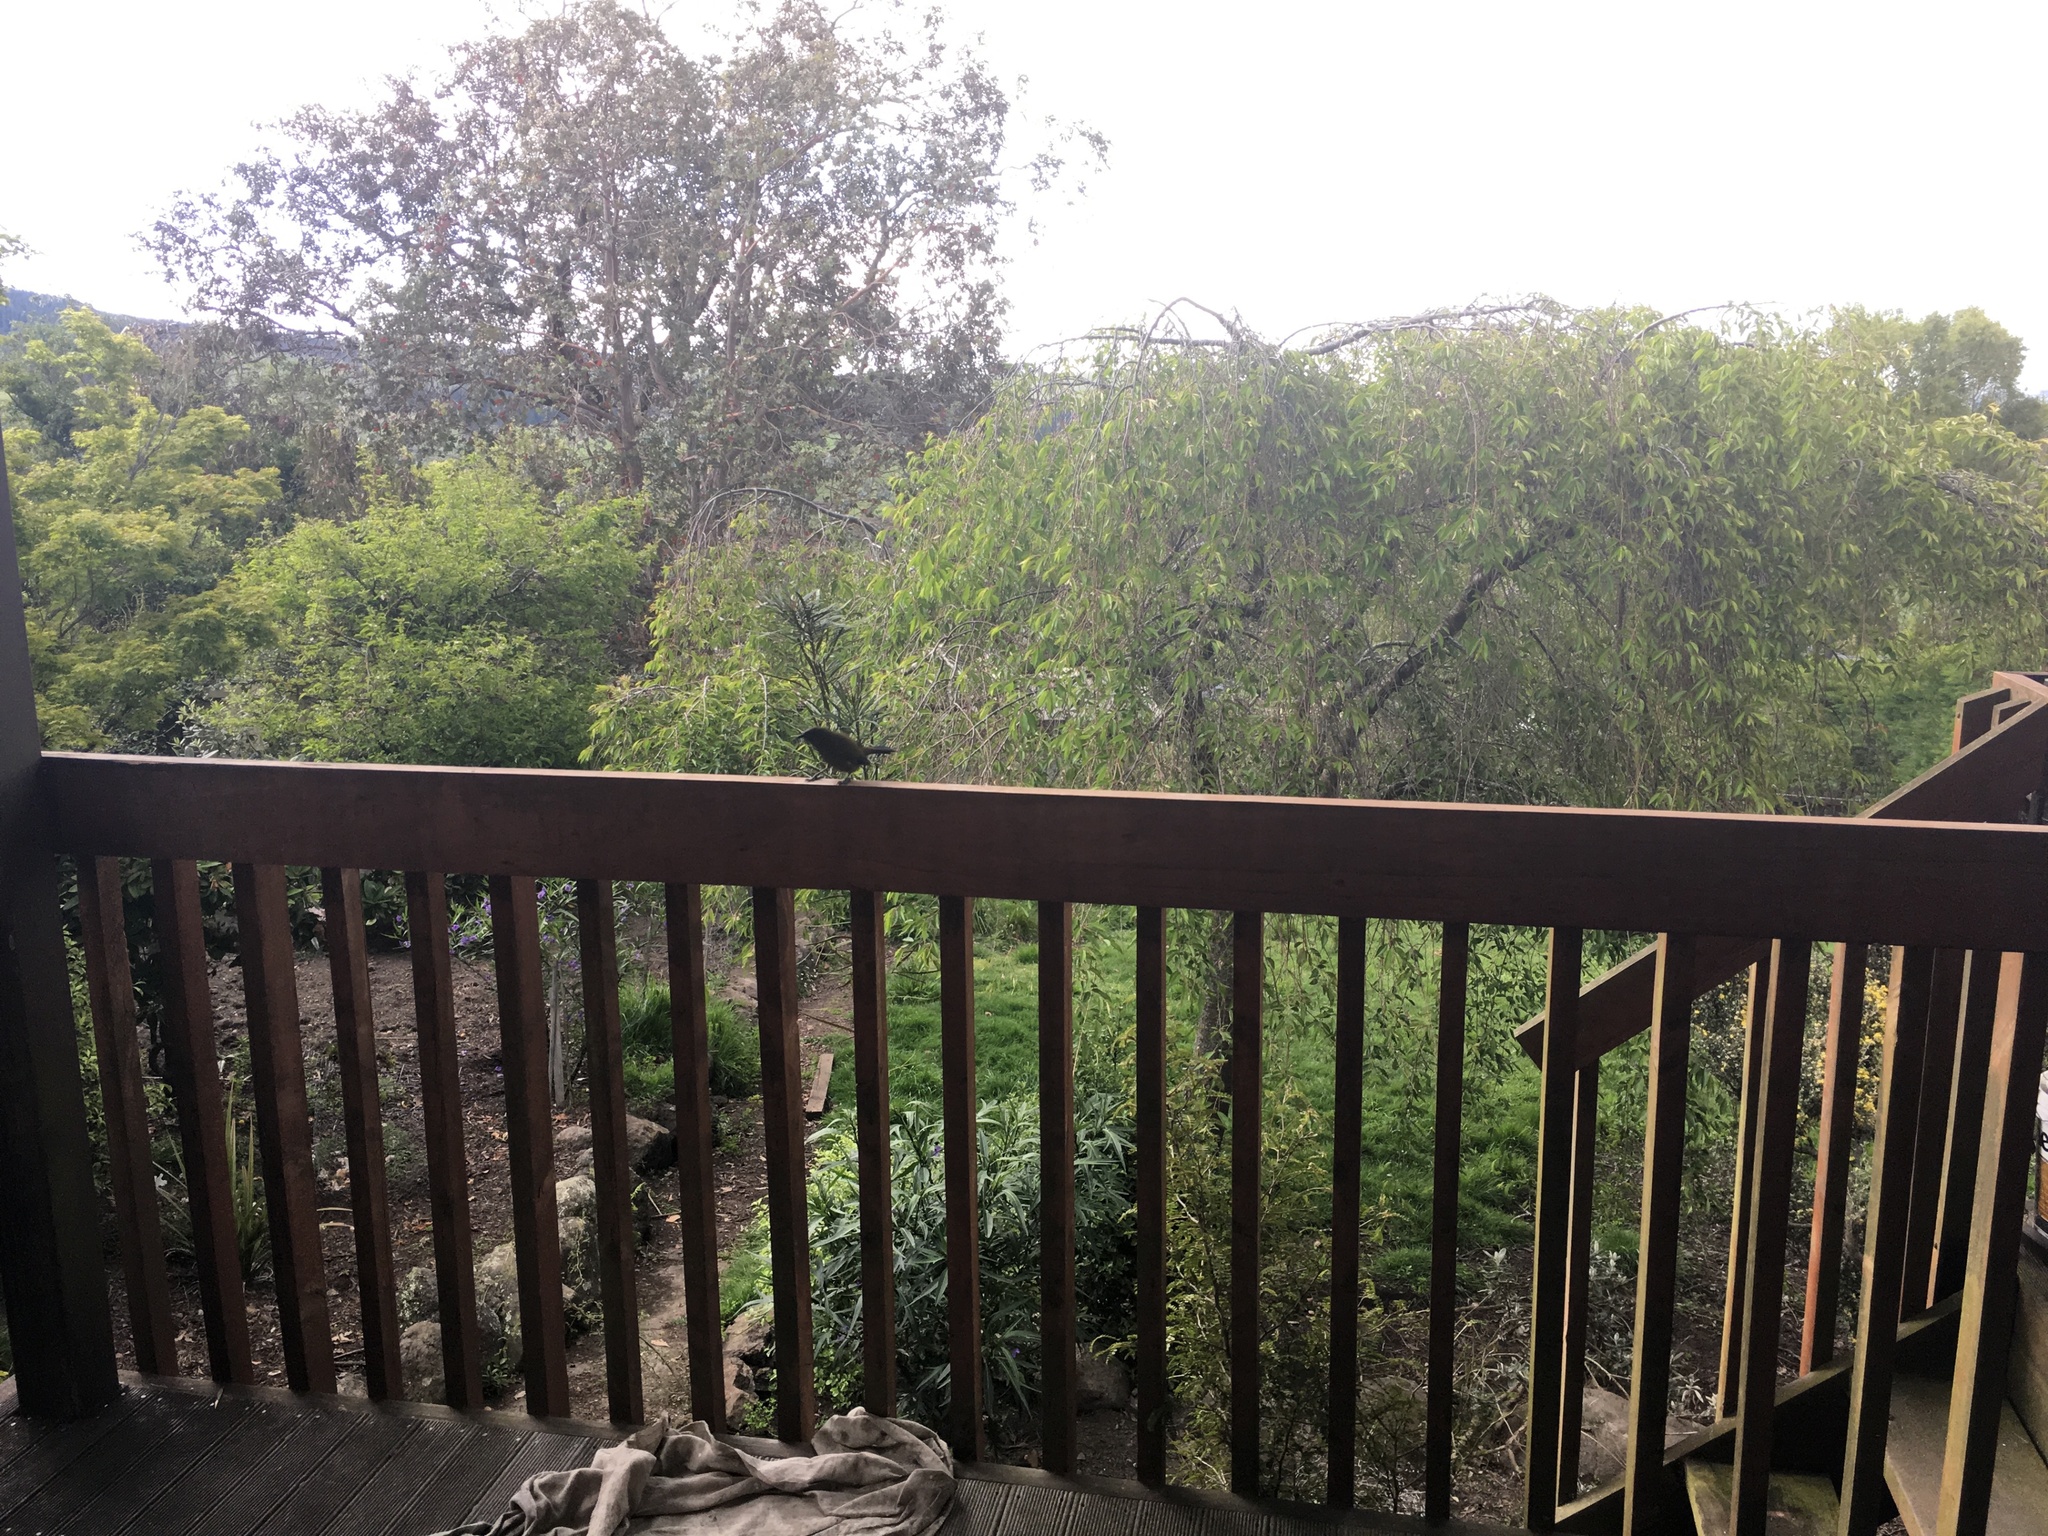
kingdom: Animalia
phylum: Chordata
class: Aves
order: Passeriformes
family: Meliphagidae
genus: Anthornis
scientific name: Anthornis melanura
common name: New zealand bellbird
